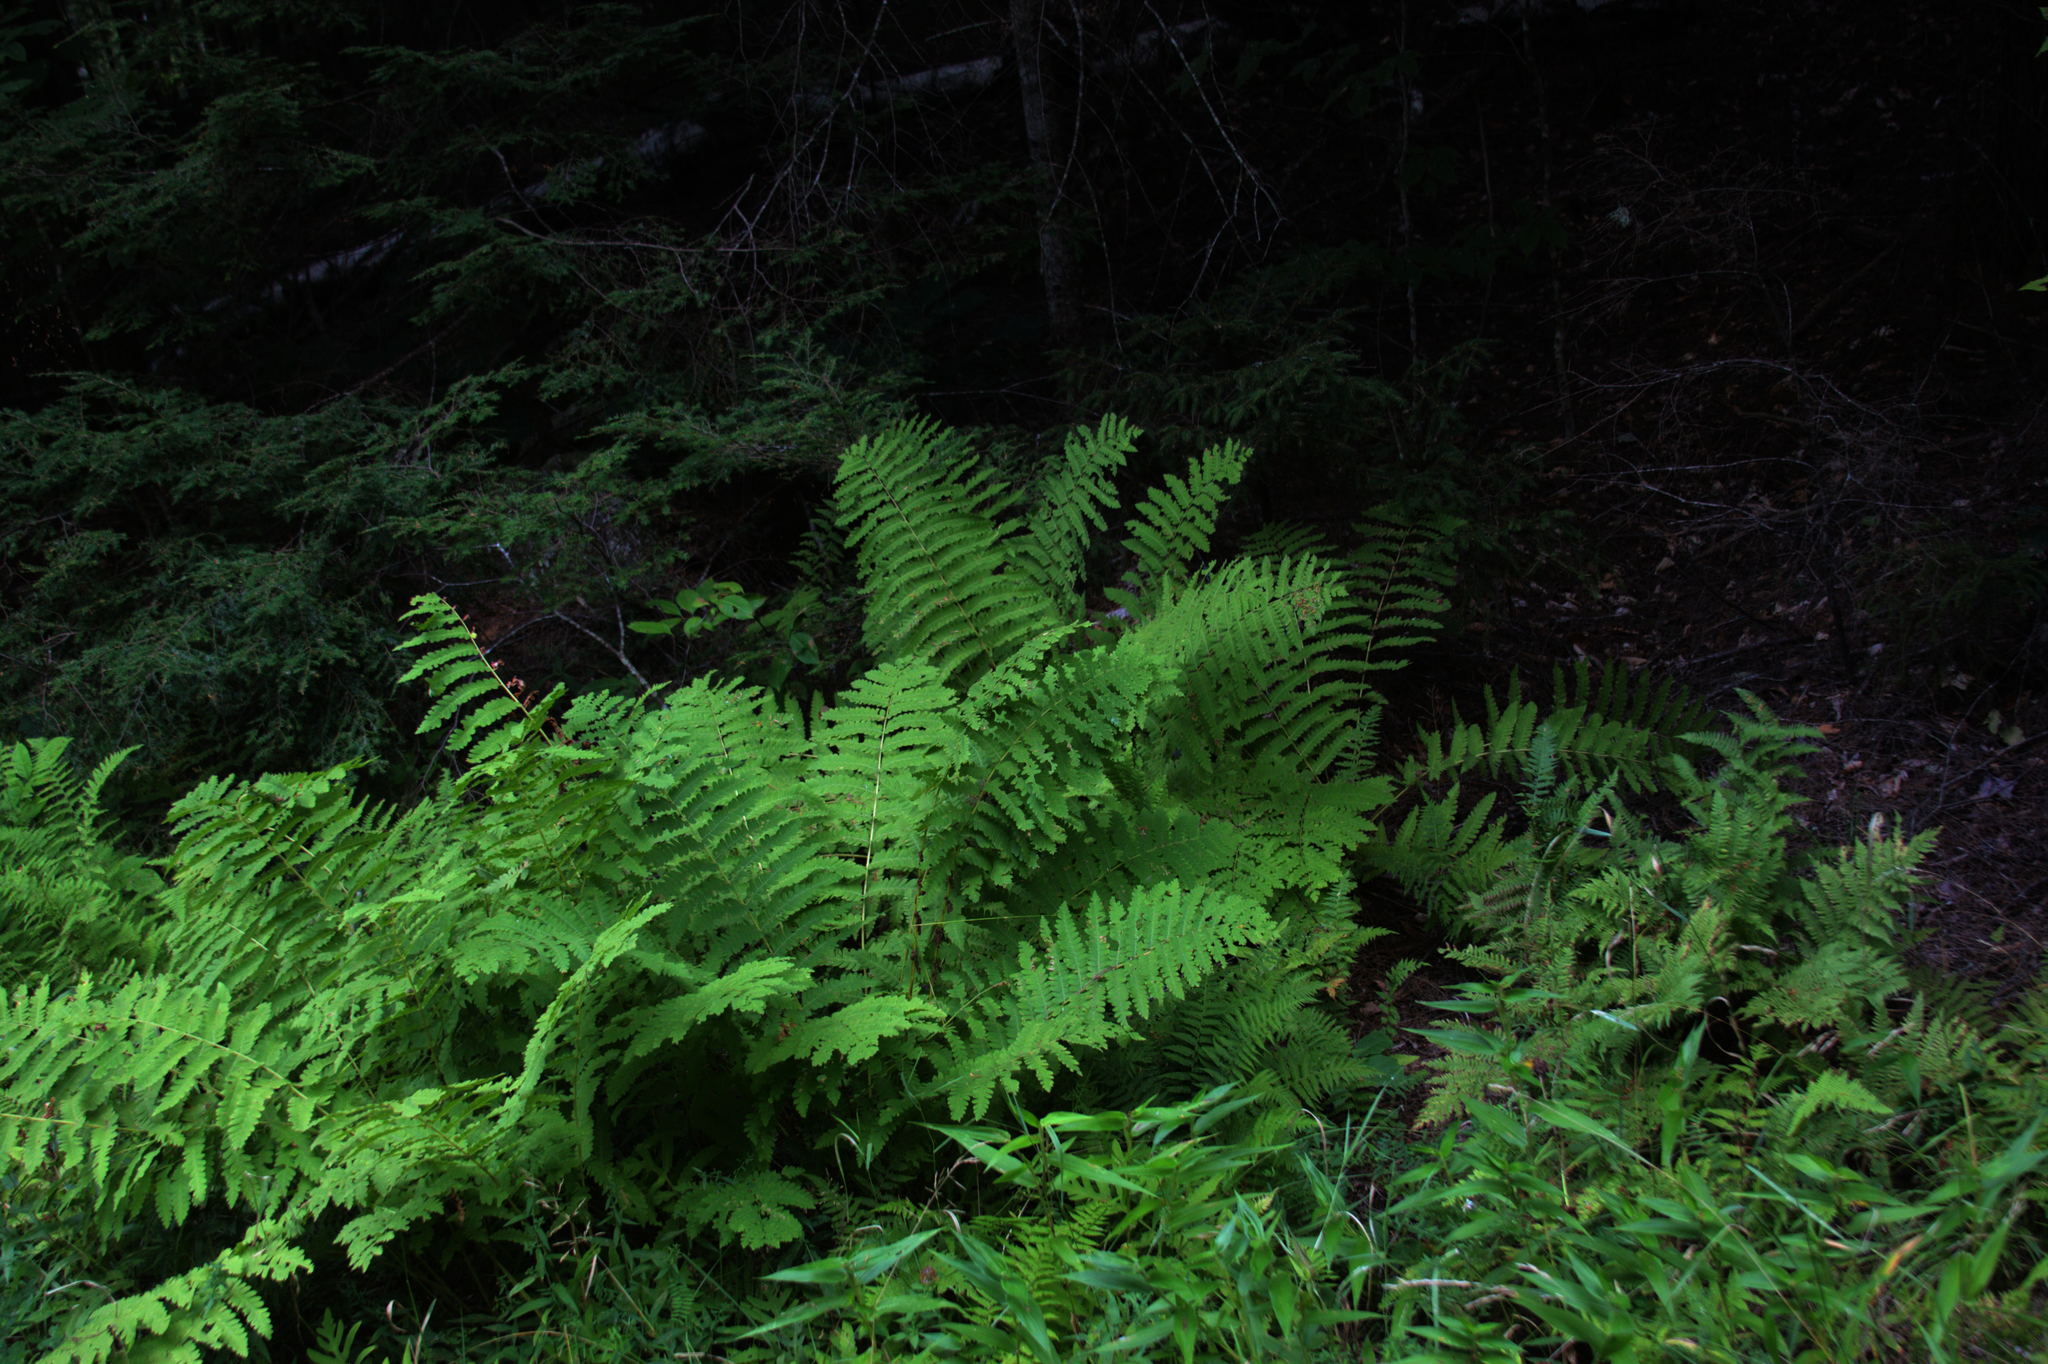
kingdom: Plantae
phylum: Tracheophyta
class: Polypodiopsida
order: Osmundales
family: Osmundaceae
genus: Claytosmunda
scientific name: Claytosmunda claytoniana
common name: Clayton's fern
